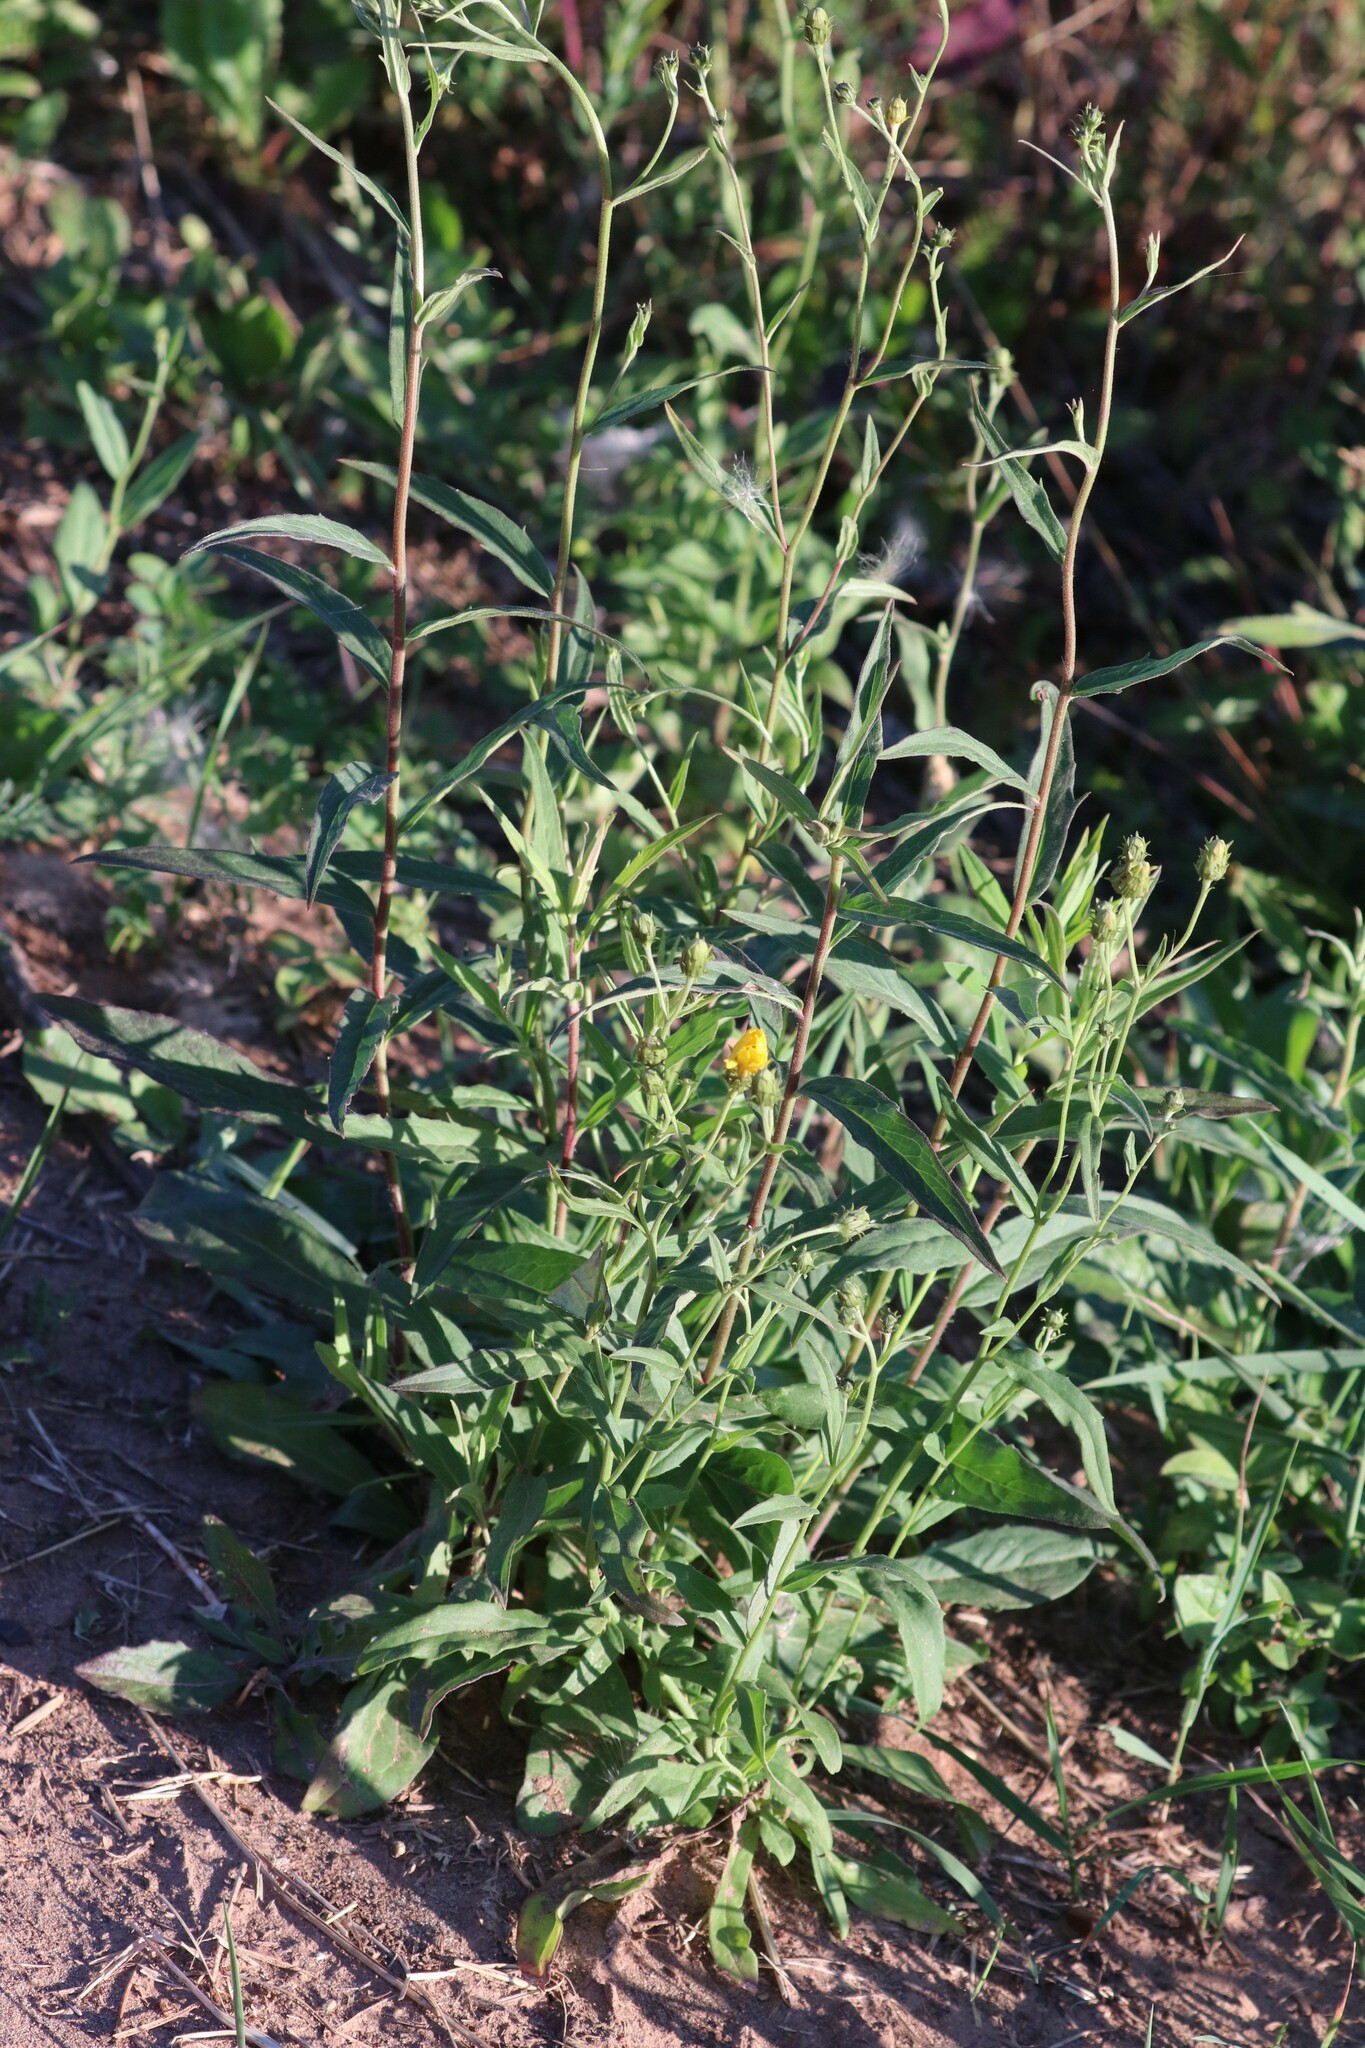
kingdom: Plantae
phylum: Tracheophyta
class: Magnoliopsida
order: Asterales
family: Asteraceae
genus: Hieracium
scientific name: Hieracium umbellatum
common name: Northern hawkweed
